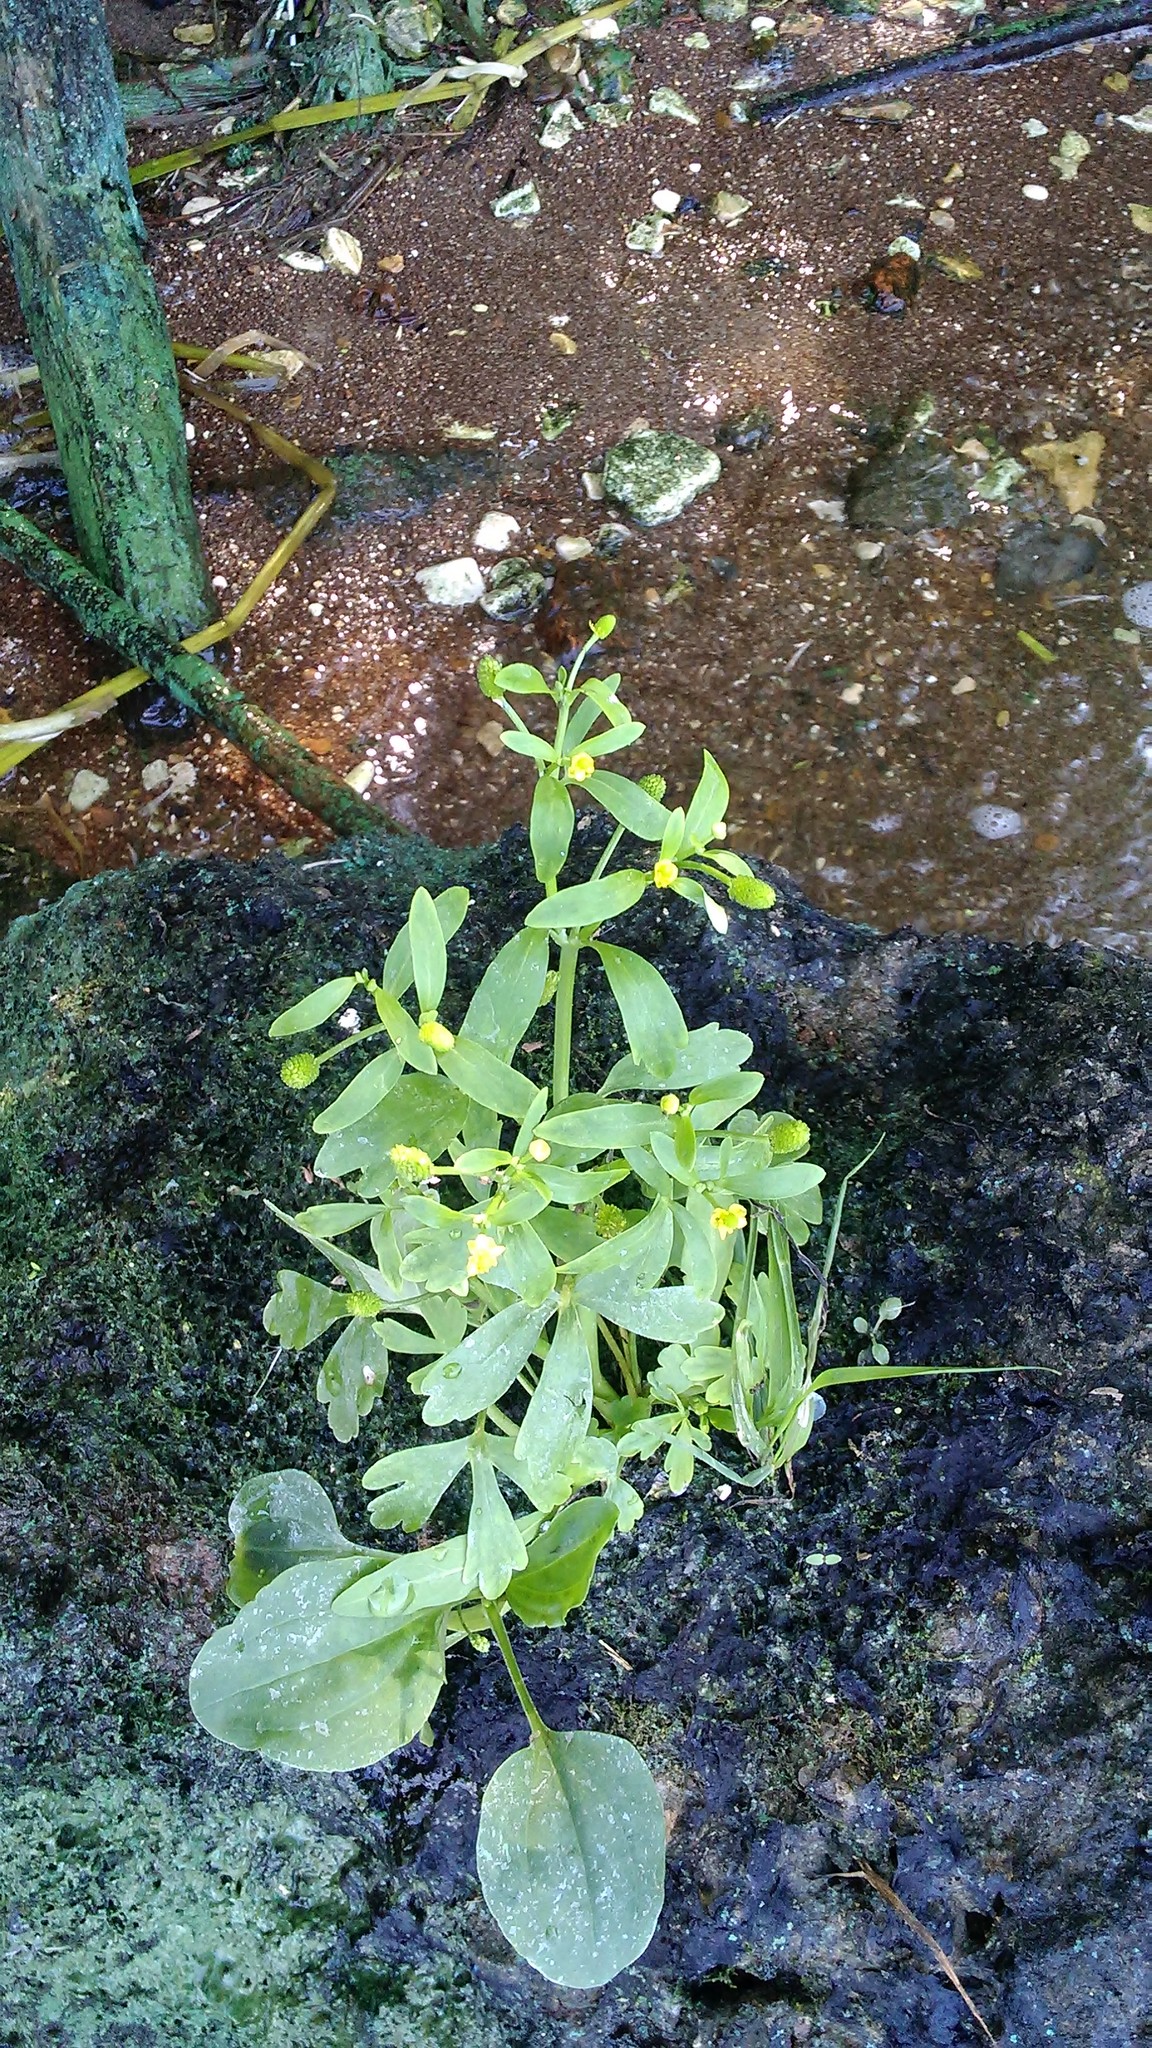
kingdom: Plantae
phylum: Tracheophyta
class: Magnoliopsida
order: Ranunculales
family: Ranunculaceae
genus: Ranunculus
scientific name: Ranunculus sceleratus
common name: Celery-leaved buttercup
